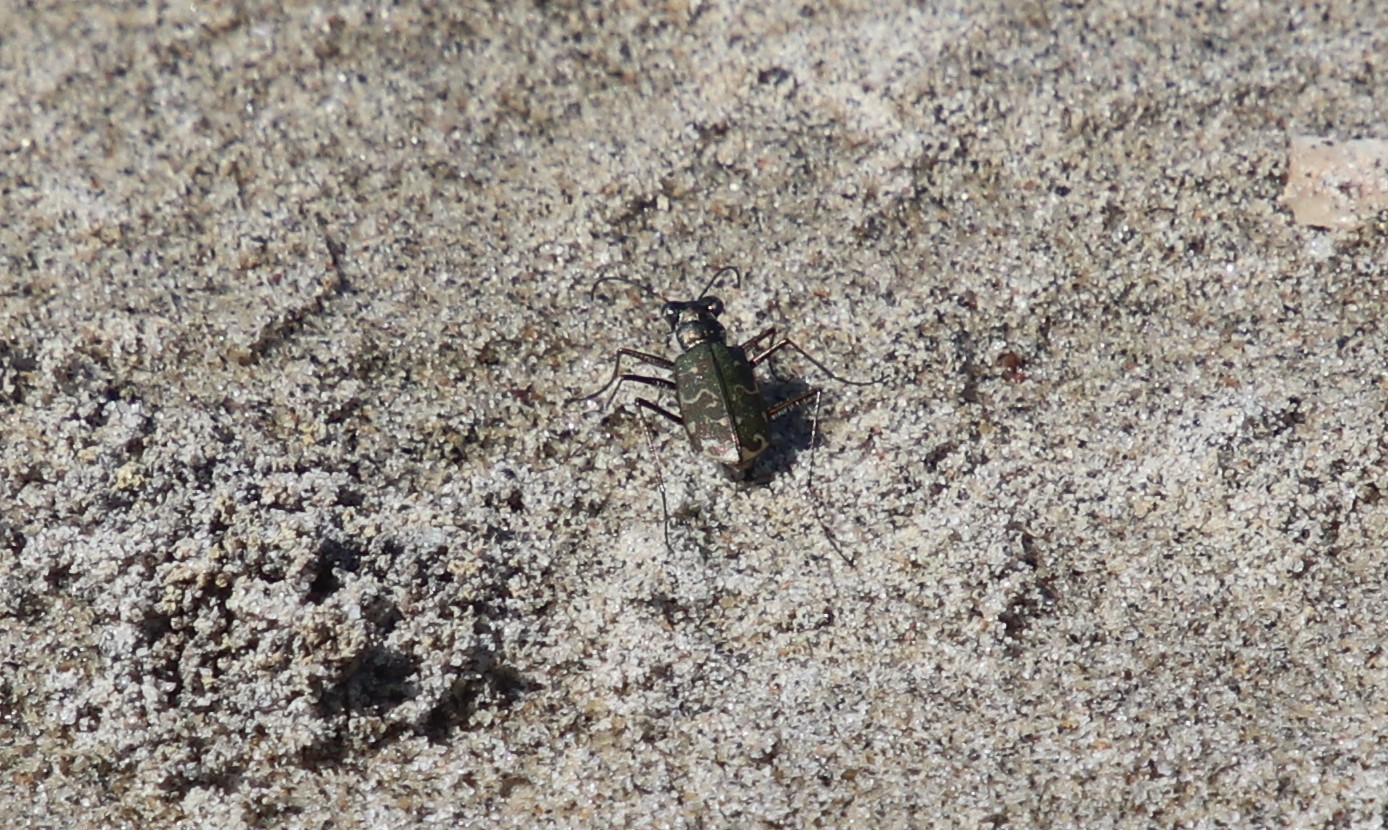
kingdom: Animalia
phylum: Arthropoda
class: Insecta
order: Coleoptera
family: Carabidae
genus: Cicindela
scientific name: Cicindela trifasciata
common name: Mudflat tiger beetle
